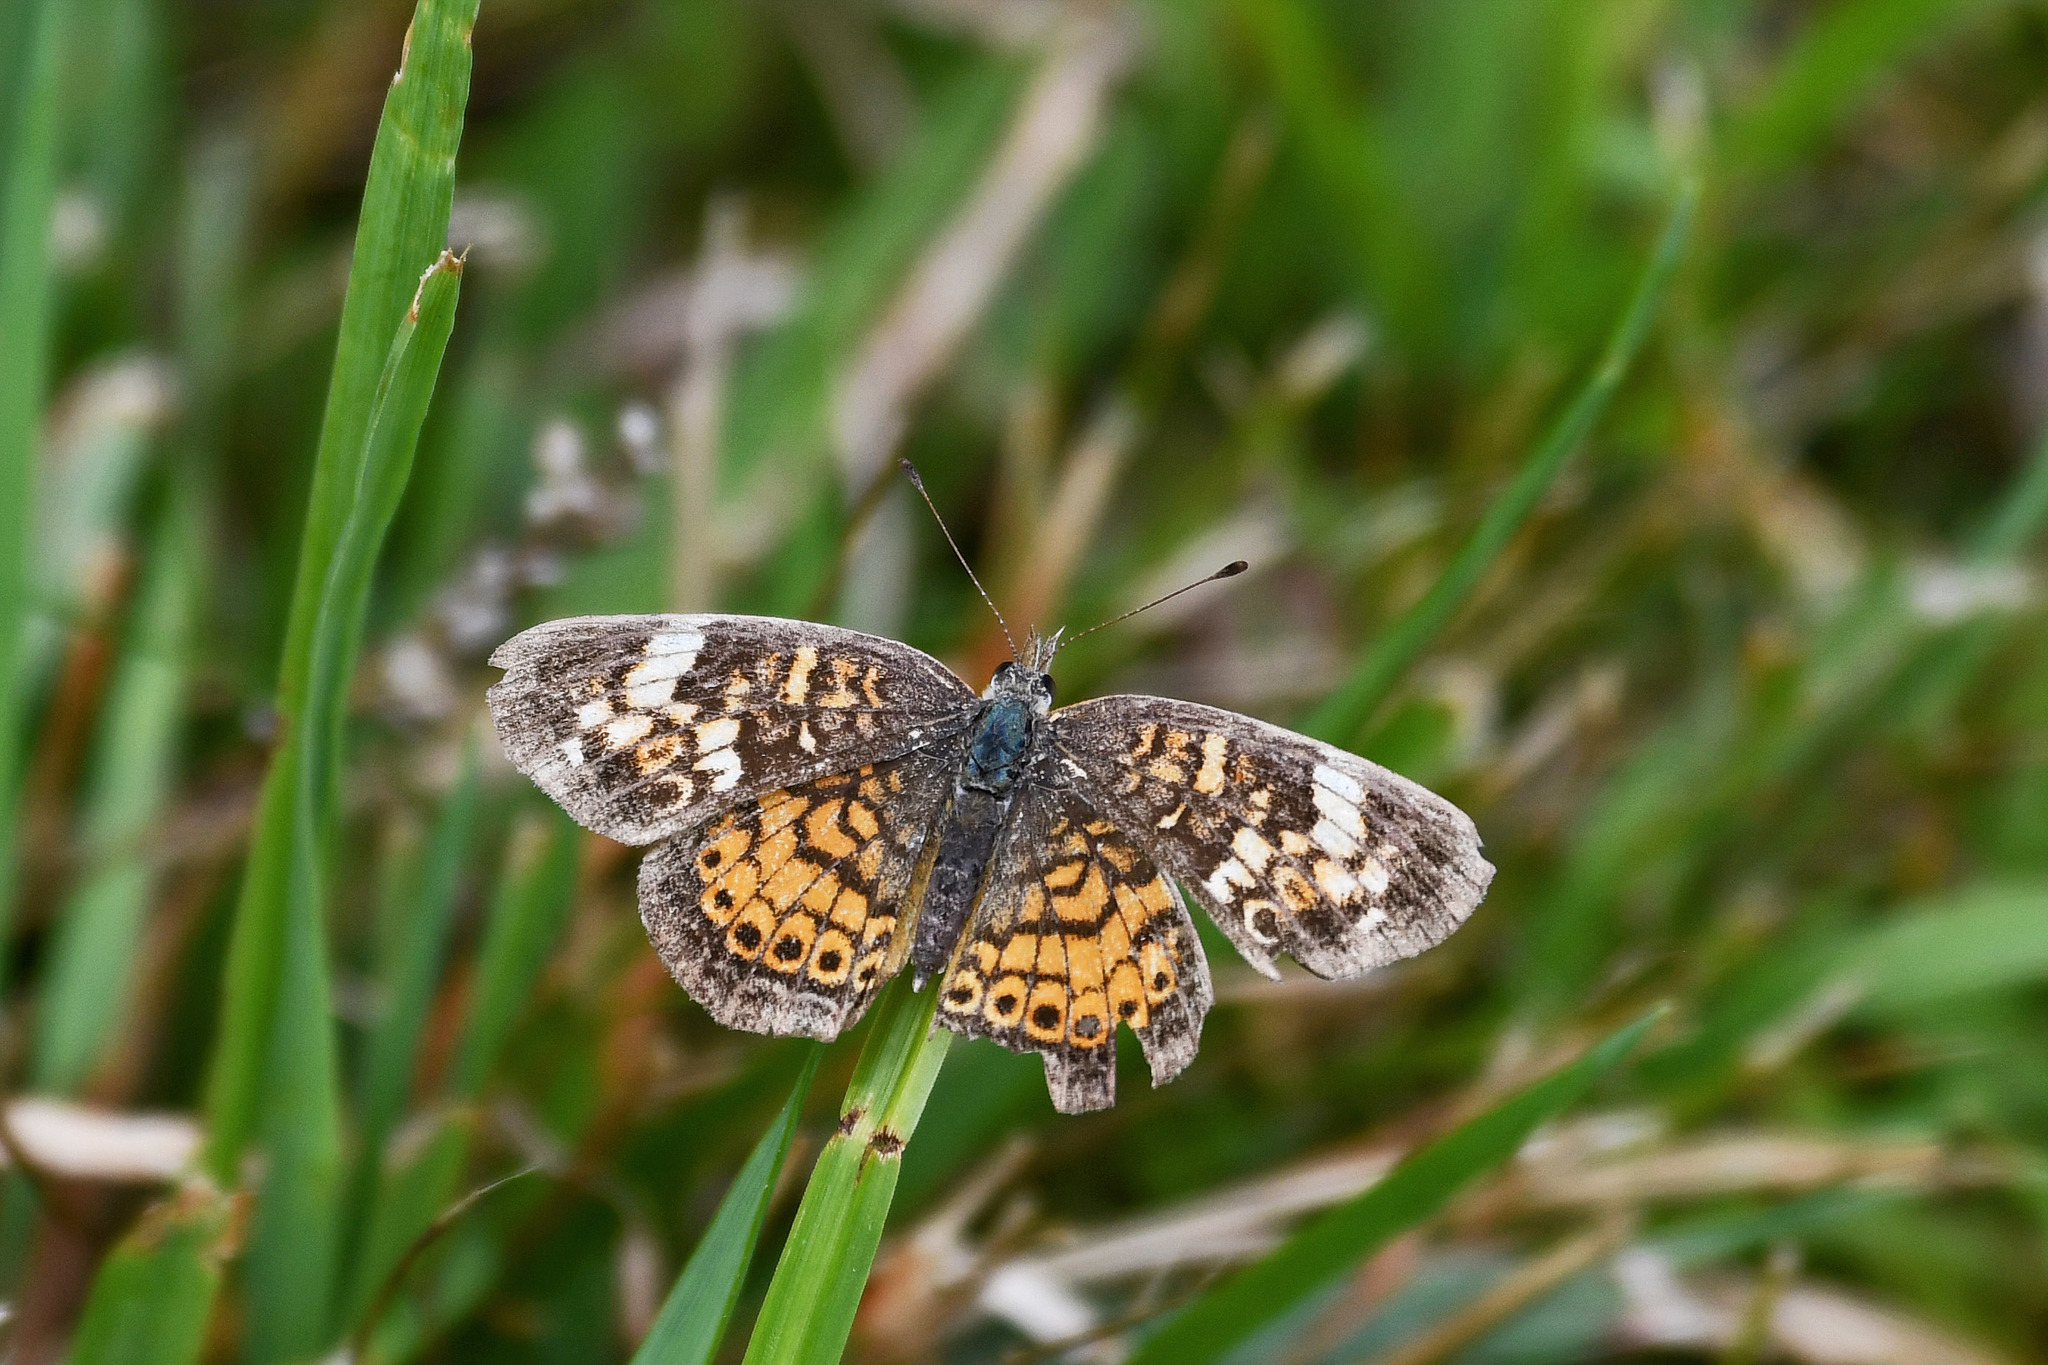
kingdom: Animalia
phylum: Arthropoda
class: Insecta
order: Lepidoptera
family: Nymphalidae
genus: Phyciodes
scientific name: Phyciodes tharos
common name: Pearl crescent
